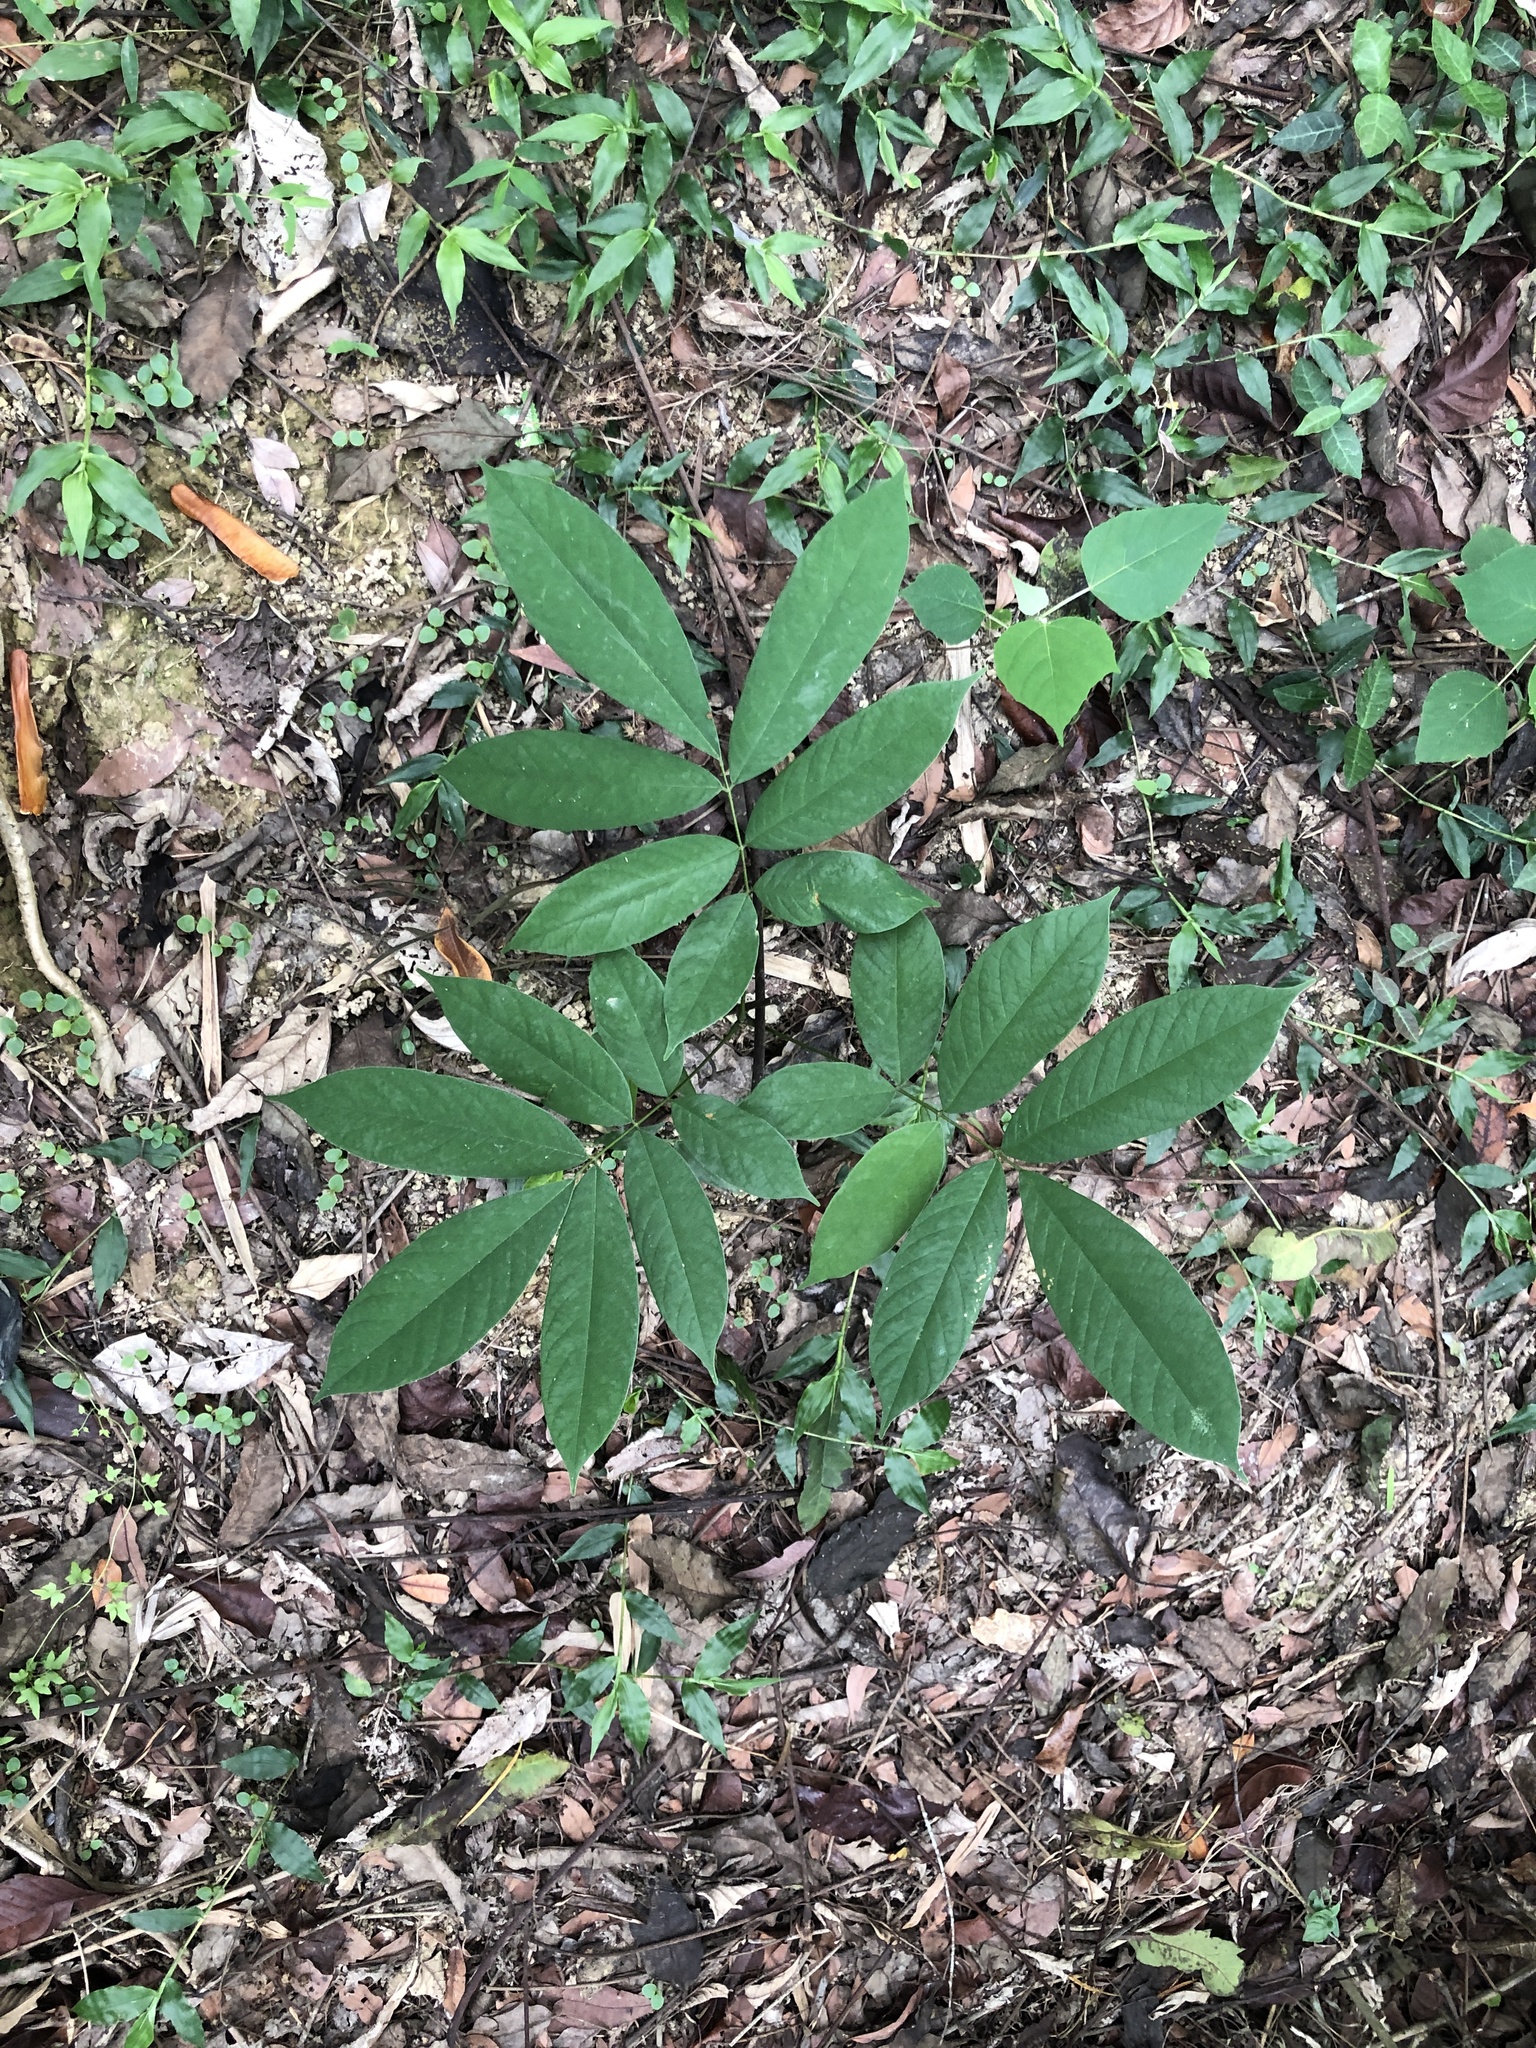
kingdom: Plantae
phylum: Tracheophyta
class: Magnoliopsida
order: Fabales
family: Fabaceae
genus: Millettia
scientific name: Millettia pachycarpa
